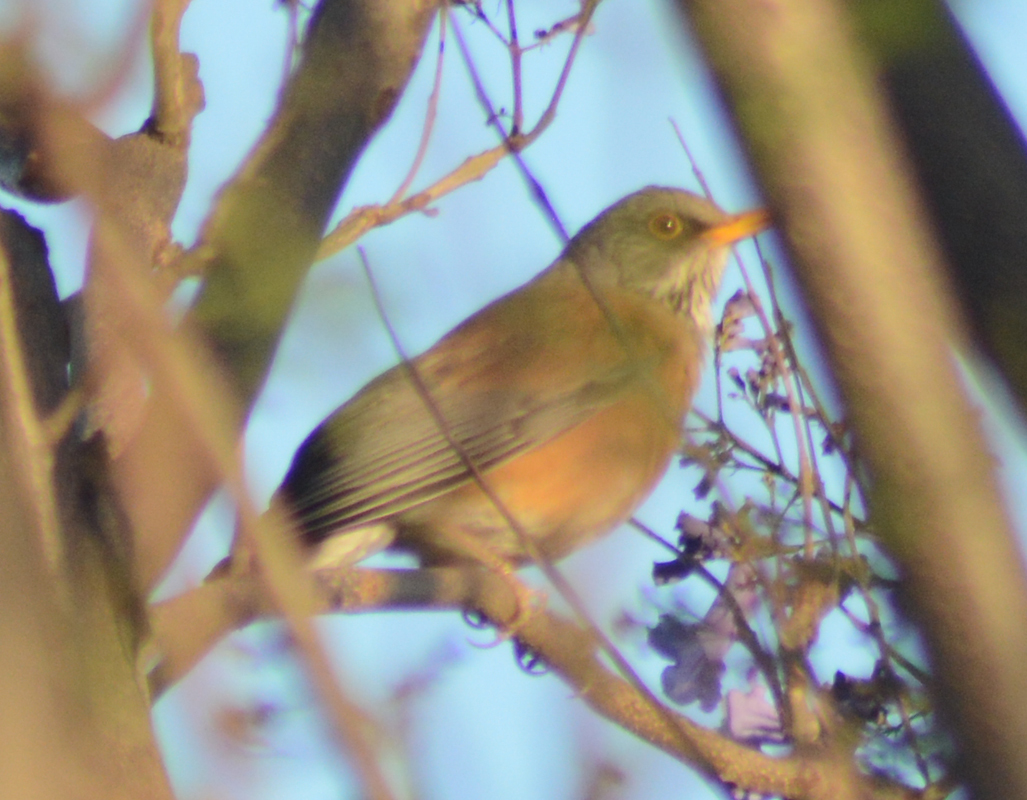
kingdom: Animalia
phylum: Chordata
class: Aves
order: Passeriformes
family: Turdidae
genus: Turdus
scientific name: Turdus rufopalliatus
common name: Rufous-backed robin
